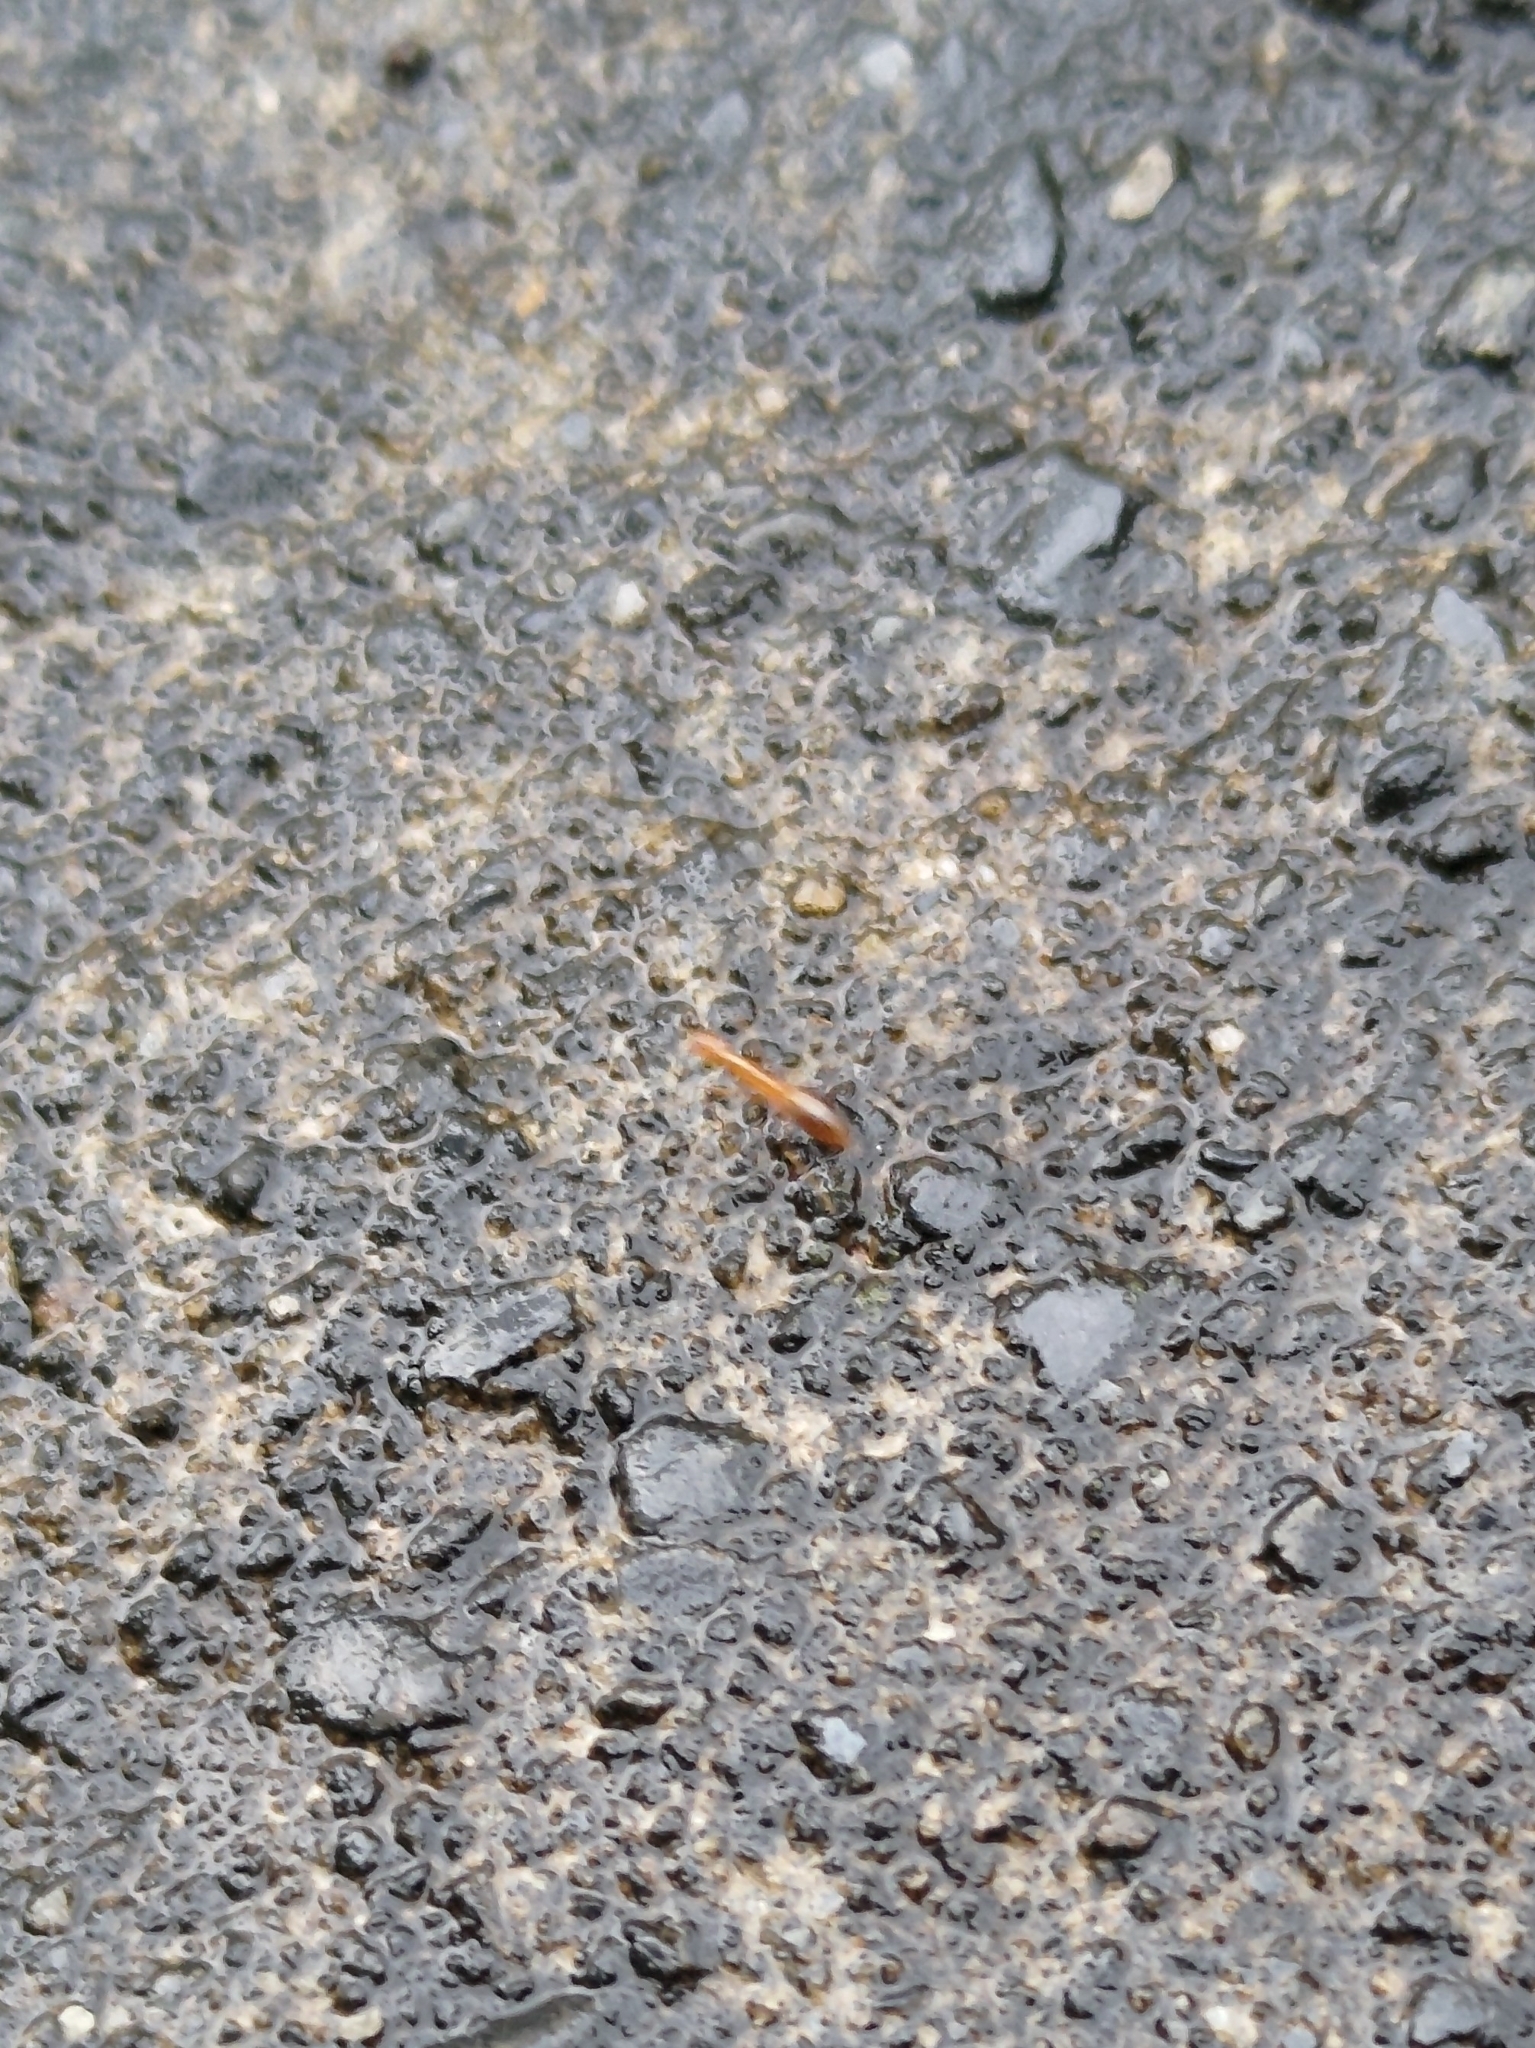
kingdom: Animalia
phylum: Arthropoda
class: Insecta
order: Hymenoptera
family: Formicidae
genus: Anoplolepis
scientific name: Anoplolepis gracilipes
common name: Ant
